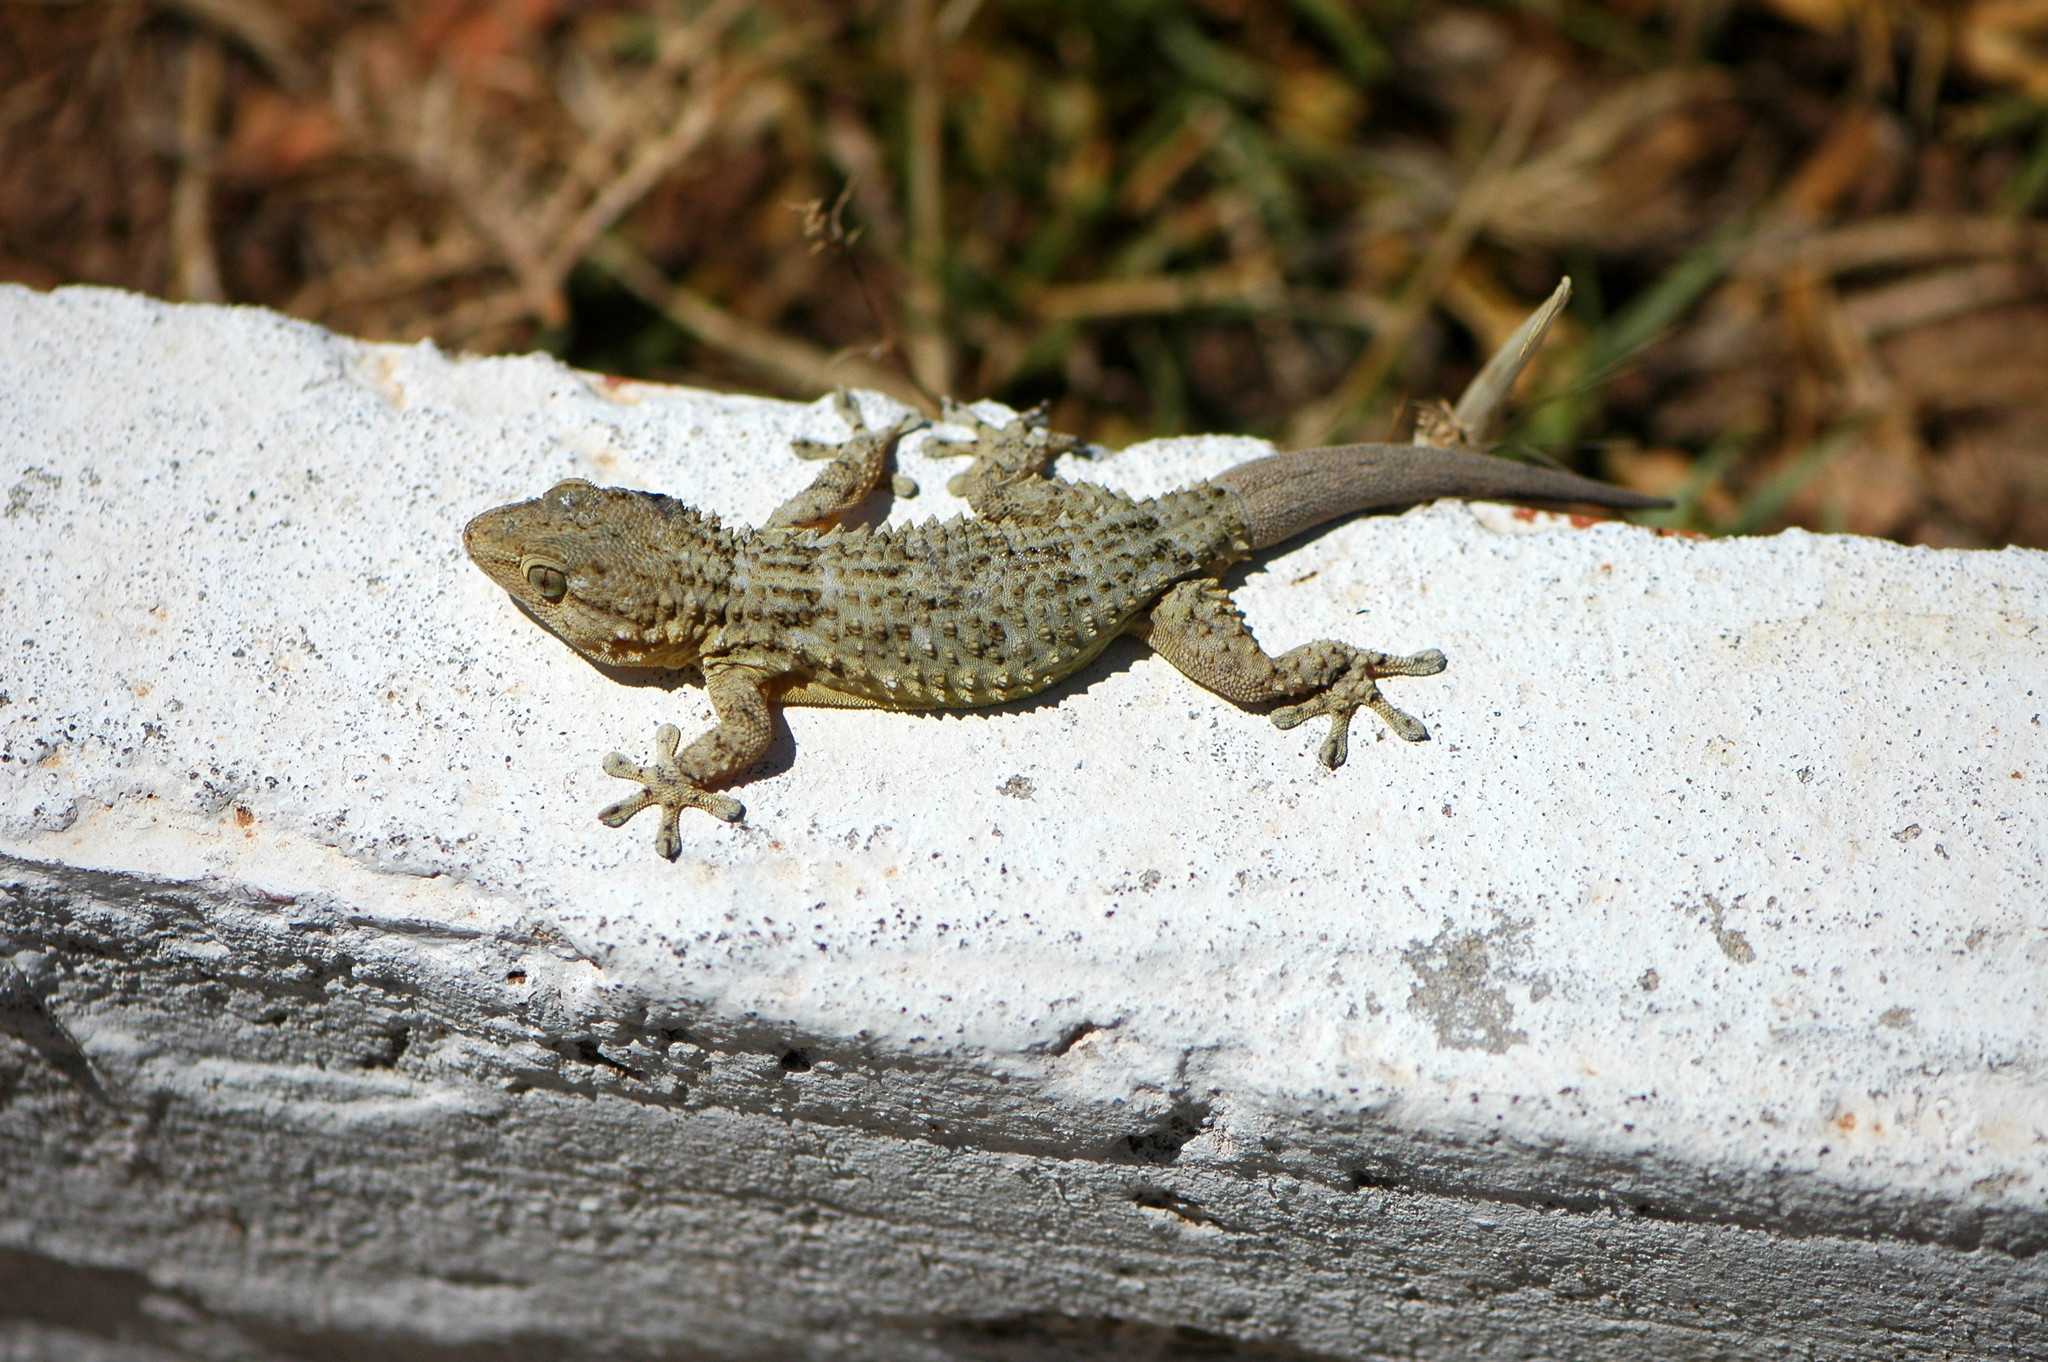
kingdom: Animalia
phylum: Chordata
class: Squamata
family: Phyllodactylidae
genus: Tarentola
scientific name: Tarentola mauritanica
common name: Moorish gecko
